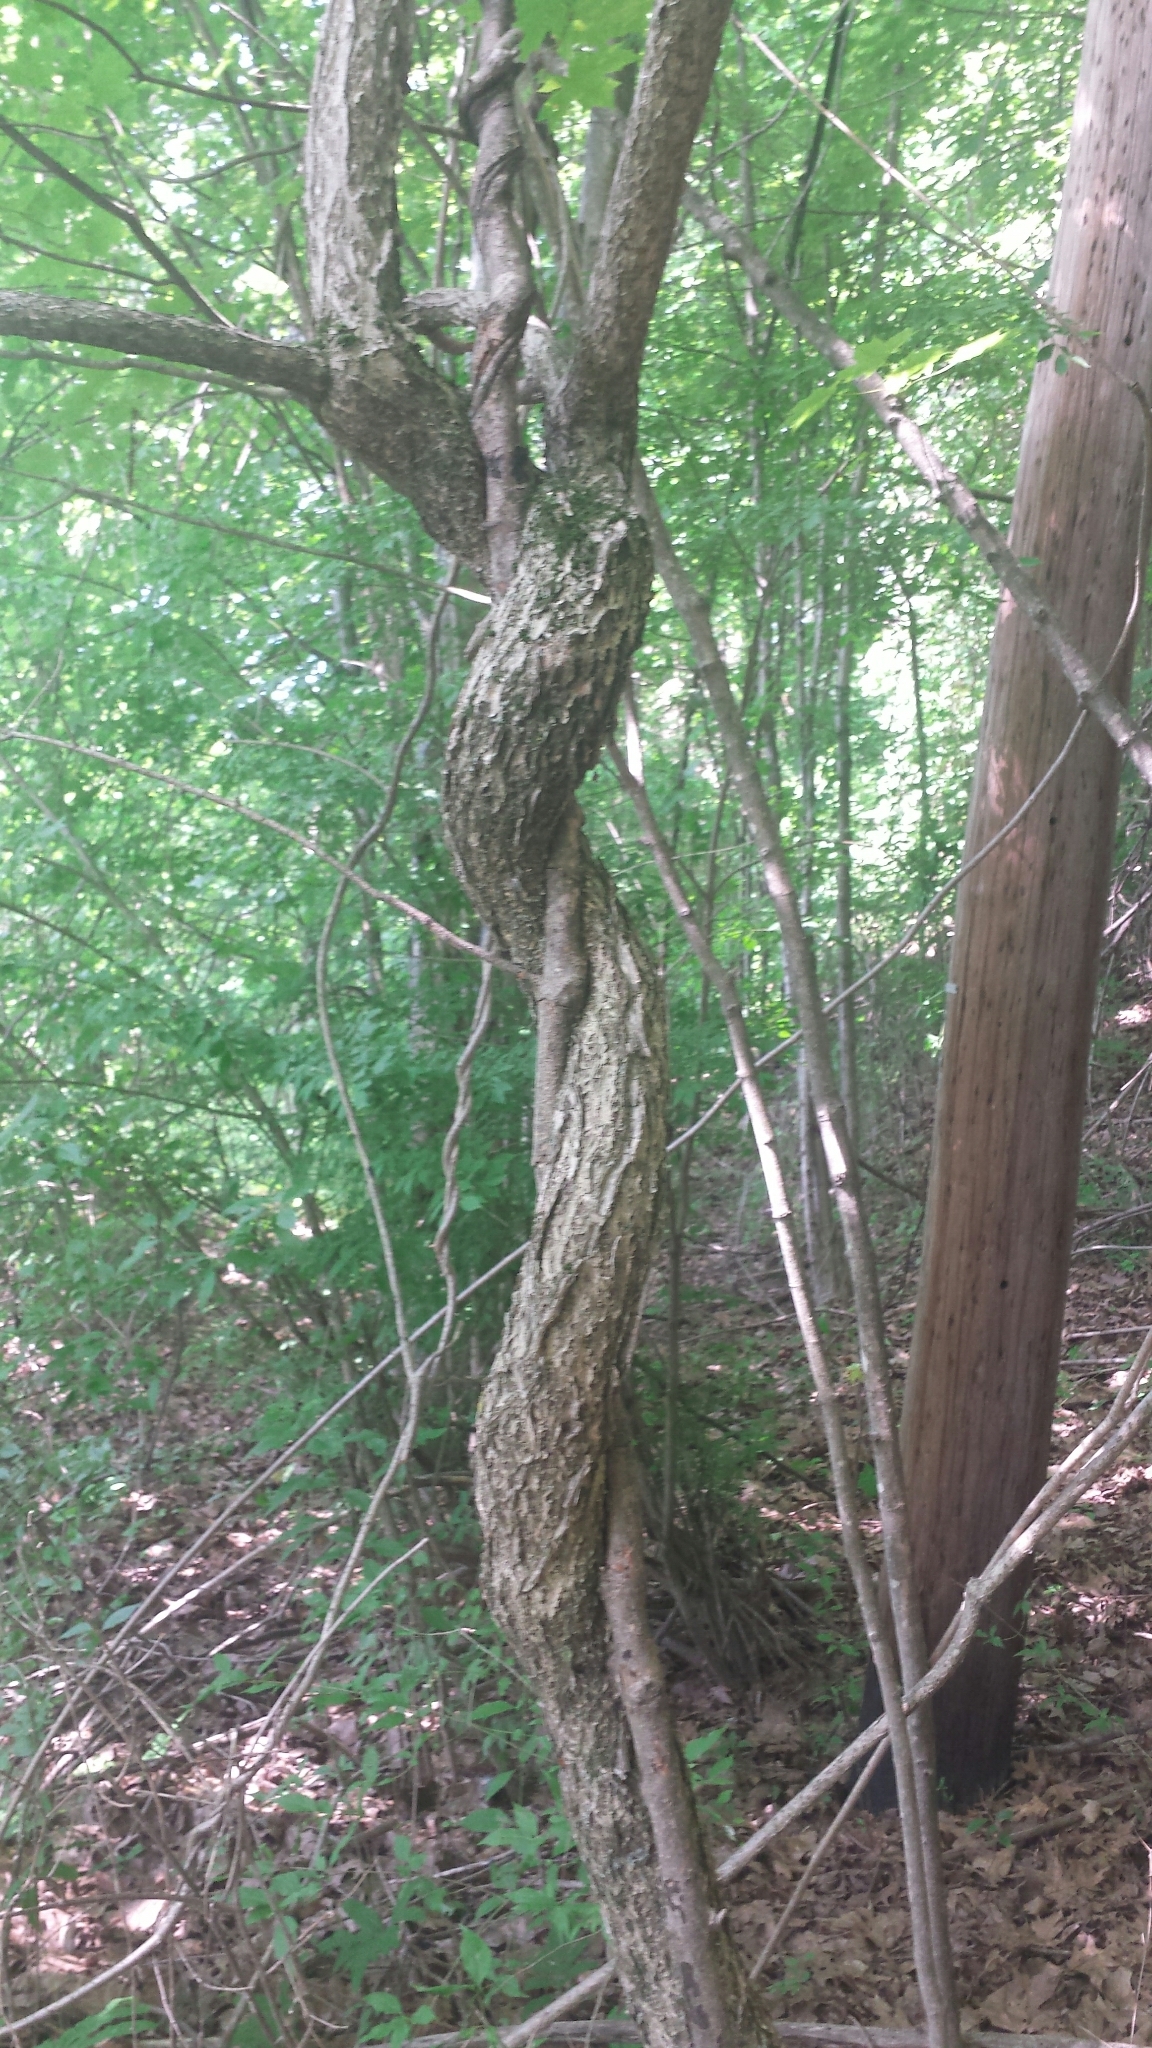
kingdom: Plantae
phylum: Tracheophyta
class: Magnoliopsida
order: Celastrales
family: Celastraceae
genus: Celastrus
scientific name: Celastrus orbiculatus
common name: Oriental bittersweet
